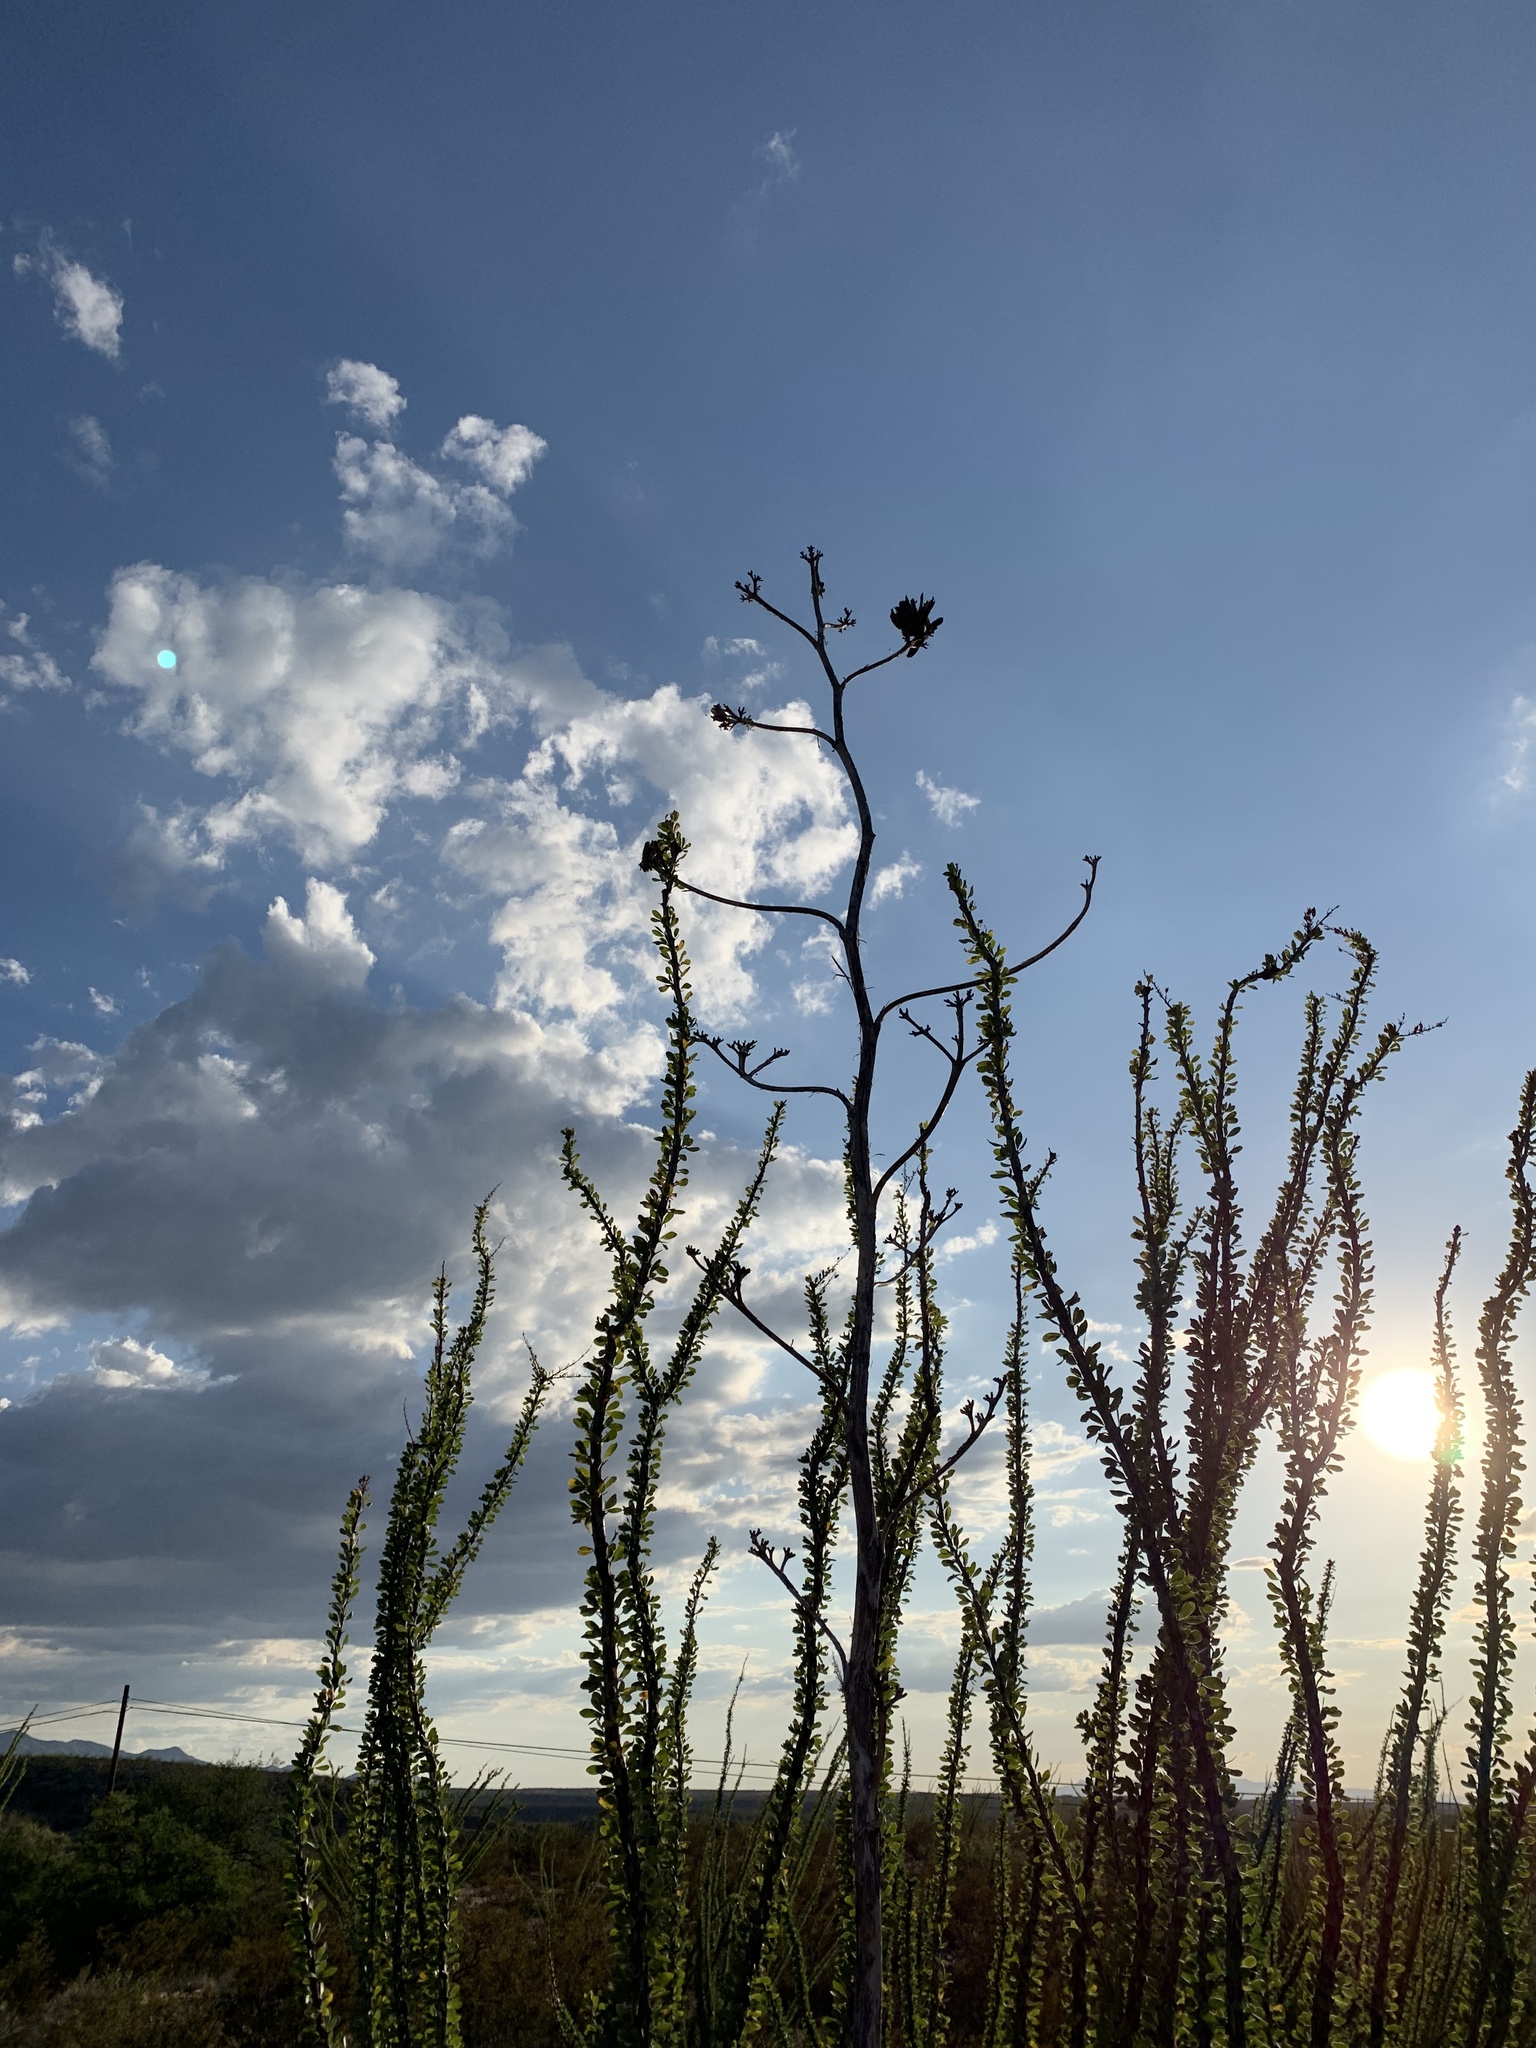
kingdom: Plantae
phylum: Tracheophyta
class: Magnoliopsida
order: Ericales
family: Fouquieriaceae
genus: Fouquieria
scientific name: Fouquieria splendens
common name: Vine-cactus
